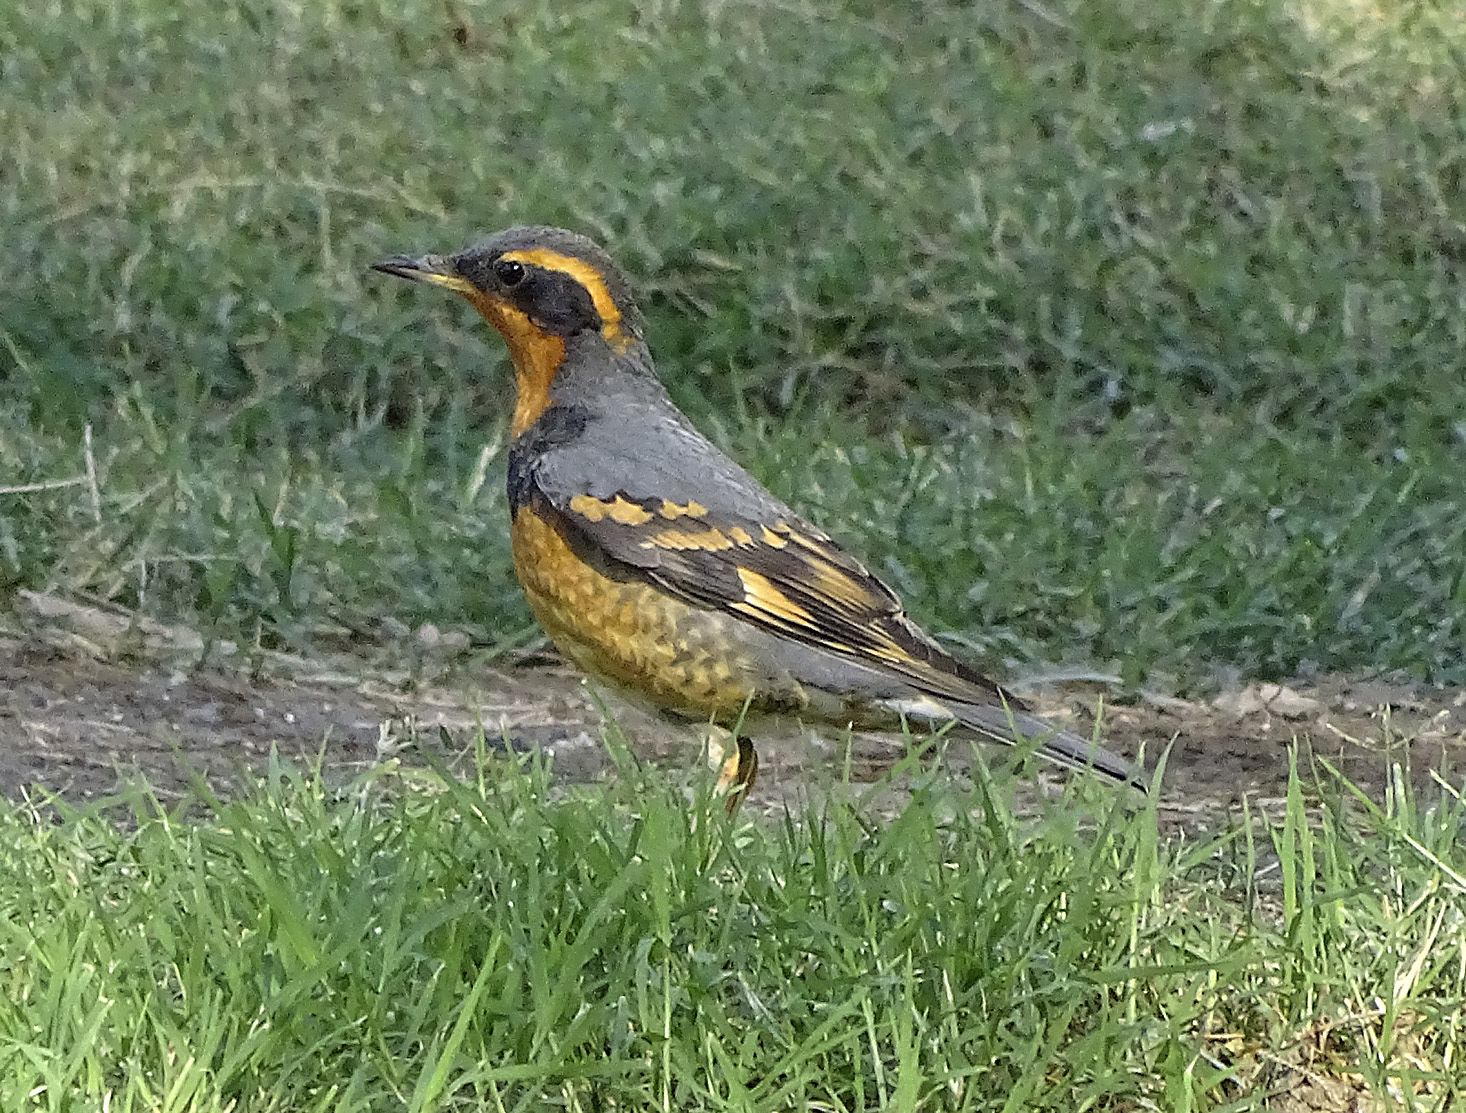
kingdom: Animalia
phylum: Chordata
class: Aves
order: Passeriformes
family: Turdidae
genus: Ixoreus
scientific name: Ixoreus naevius
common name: Varied thrush
